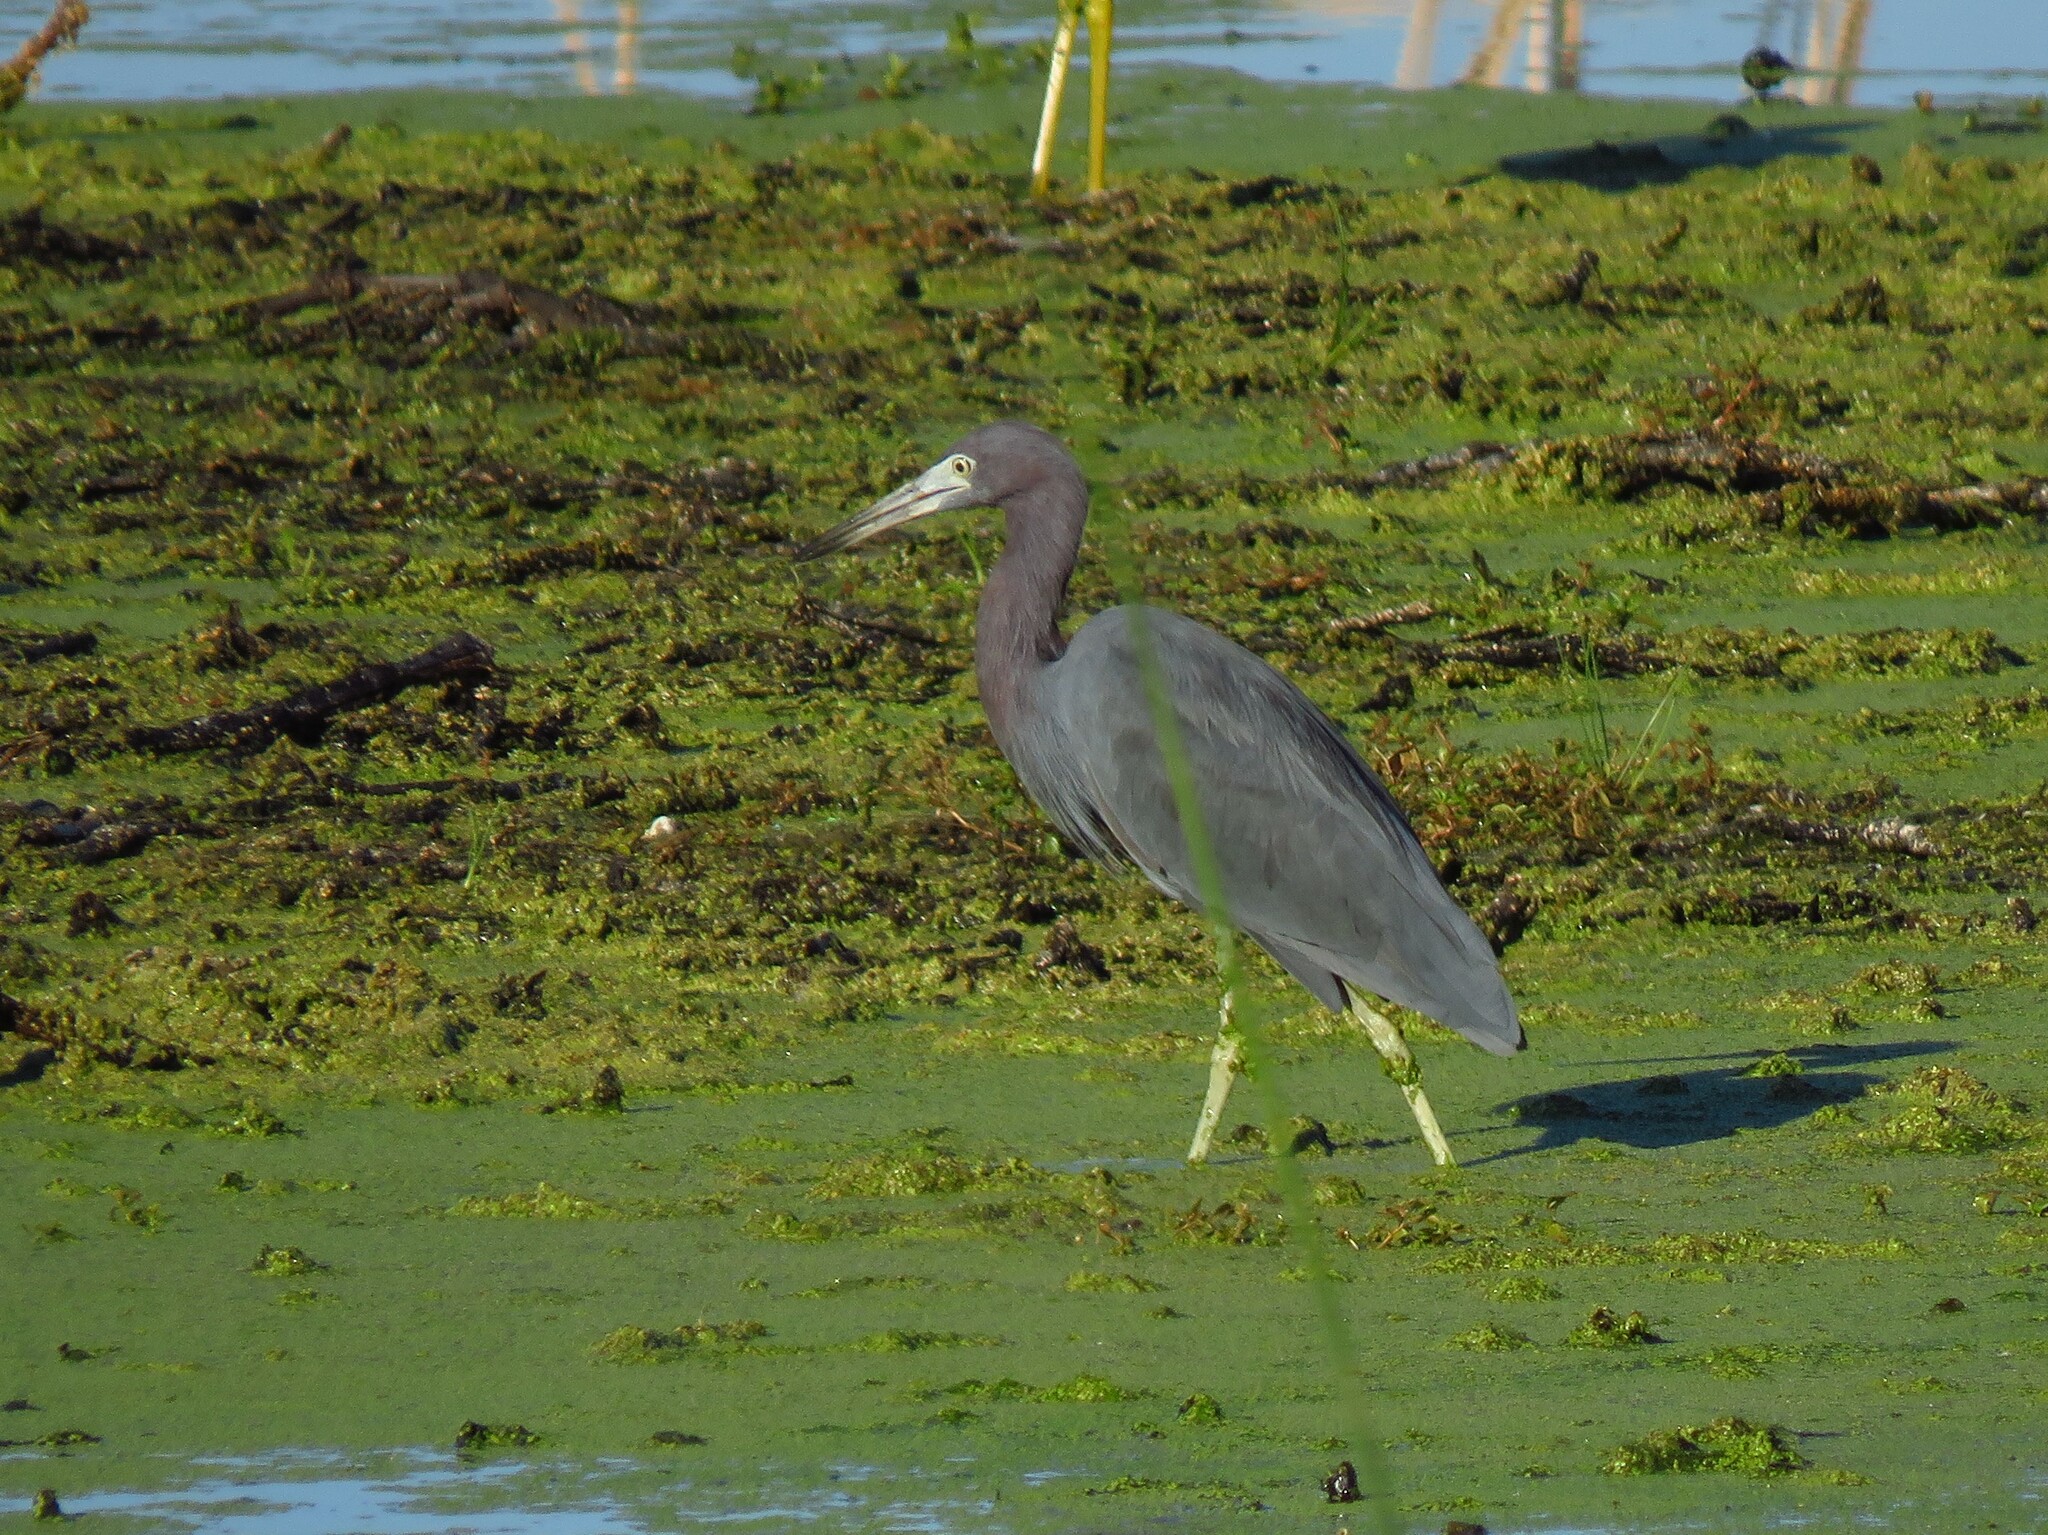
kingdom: Animalia
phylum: Chordata
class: Aves
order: Pelecaniformes
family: Ardeidae
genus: Egretta
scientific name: Egretta caerulea
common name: Little blue heron
